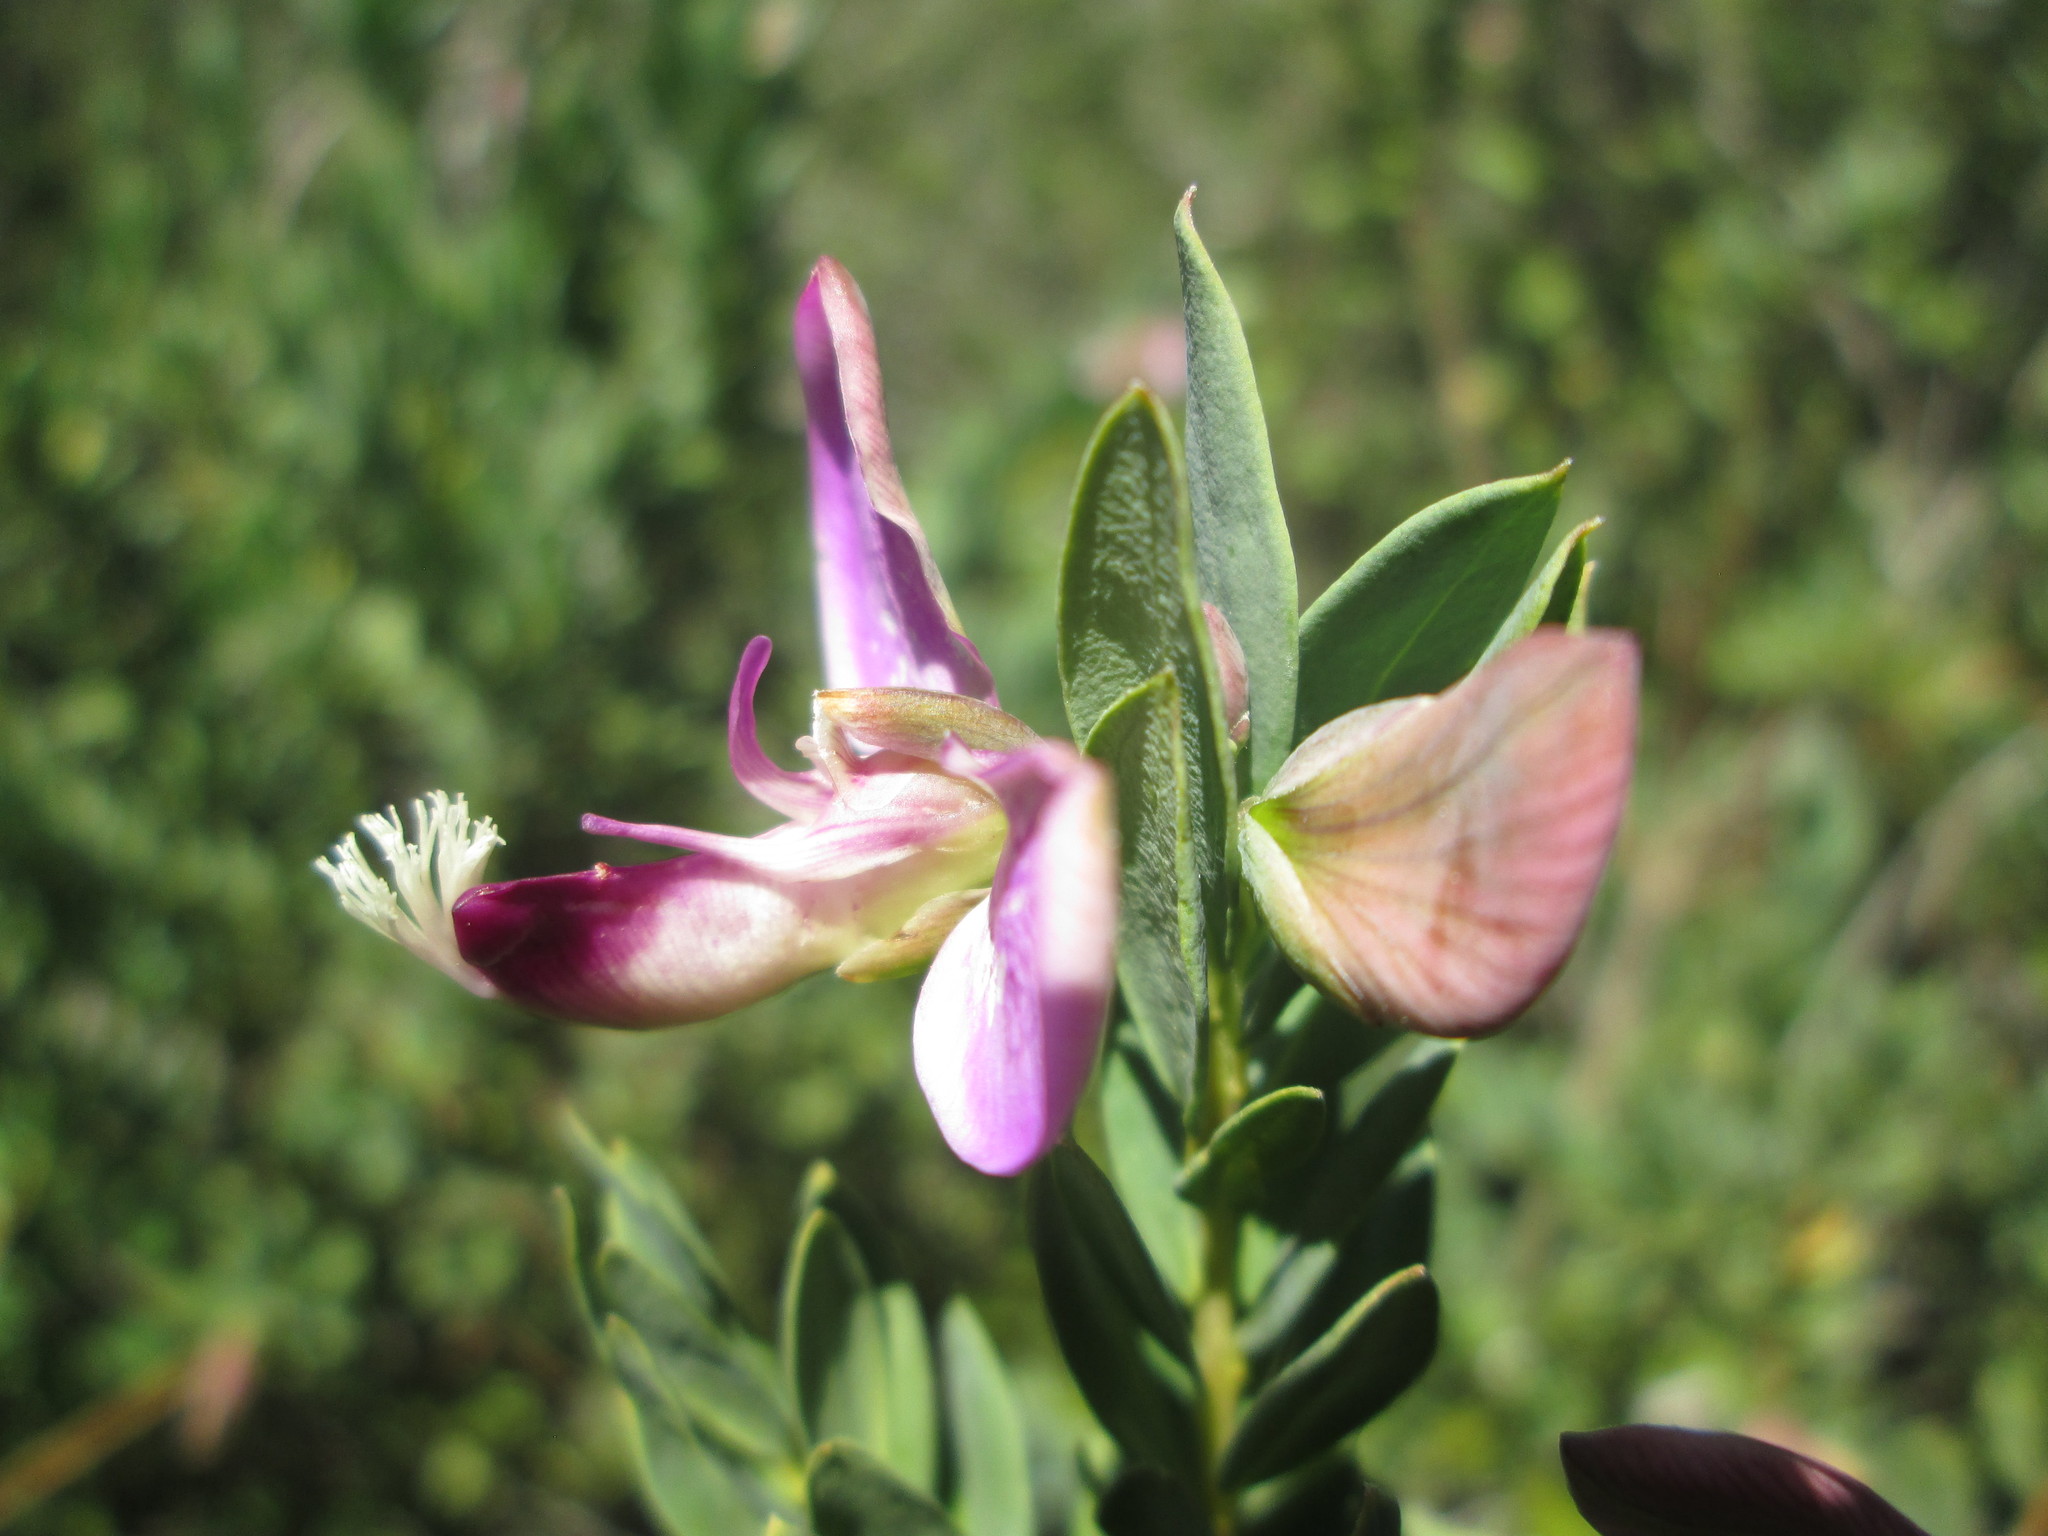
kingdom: Plantae
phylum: Tracheophyta
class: Magnoliopsida
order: Fabales
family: Polygalaceae
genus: Polygala
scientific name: Polygala myrtifolia
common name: Myrtle-leaf milkwort
